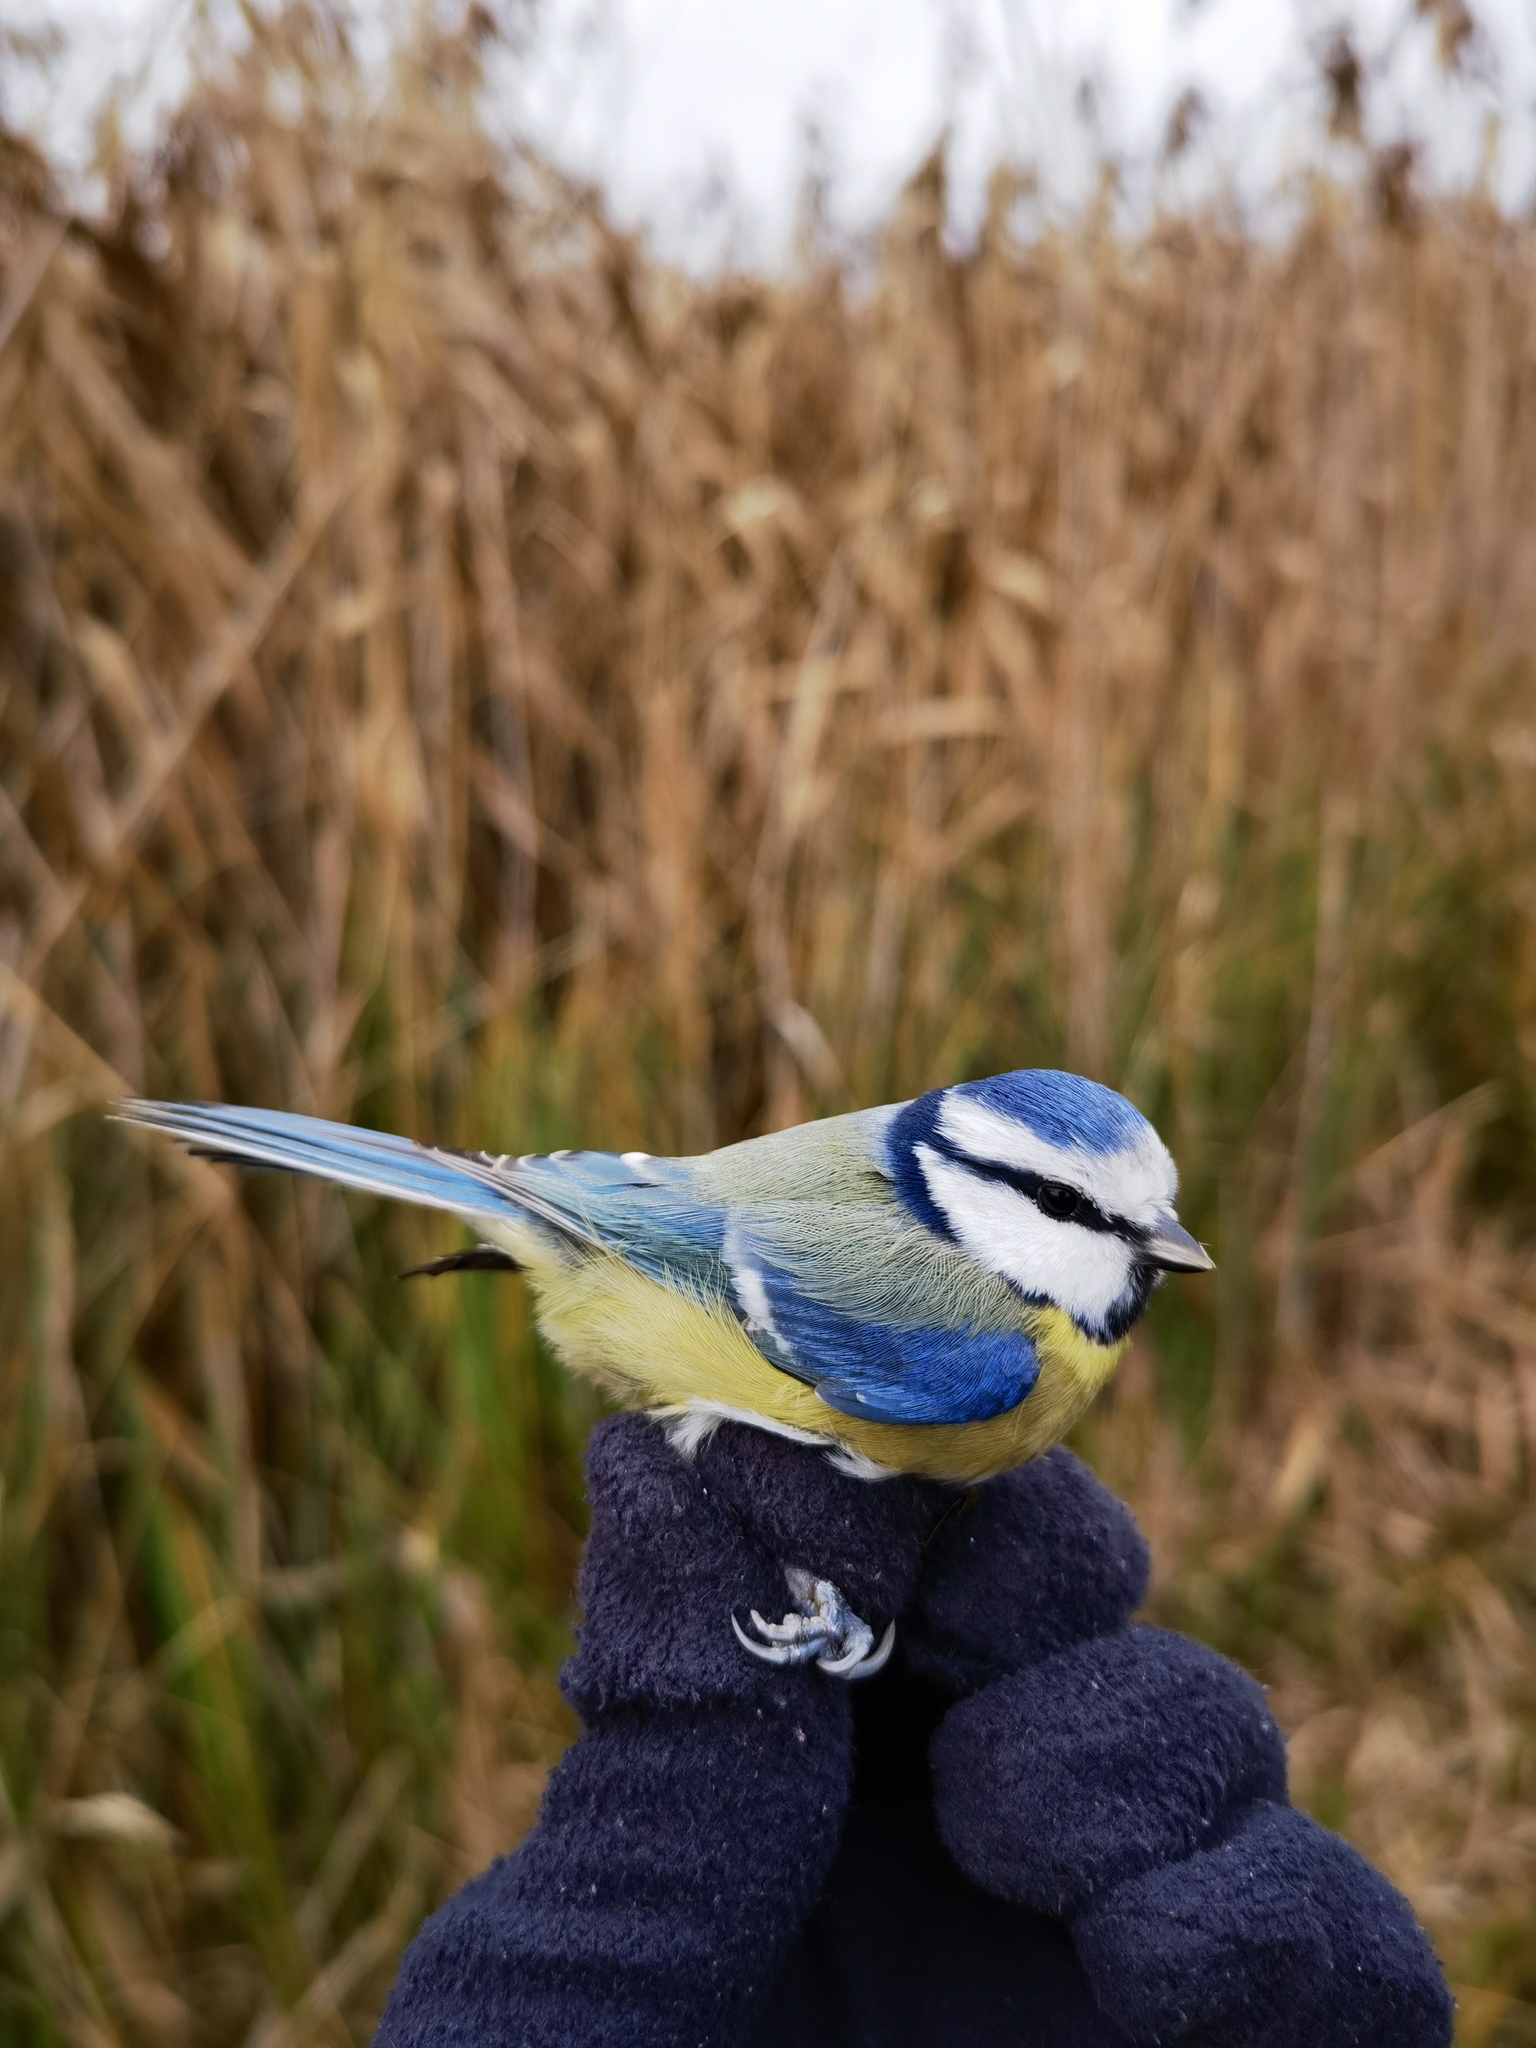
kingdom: Animalia
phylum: Chordata
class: Aves
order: Passeriformes
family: Paridae
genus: Cyanistes
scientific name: Cyanistes caeruleus
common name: Eurasian blue tit
